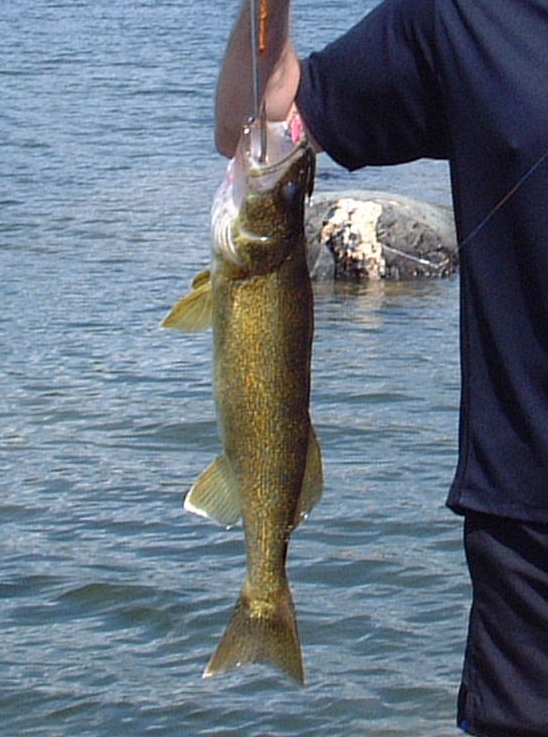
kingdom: Animalia
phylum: Chordata
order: Perciformes
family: Percidae
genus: Sander
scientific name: Sander vitreus
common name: Walleye
